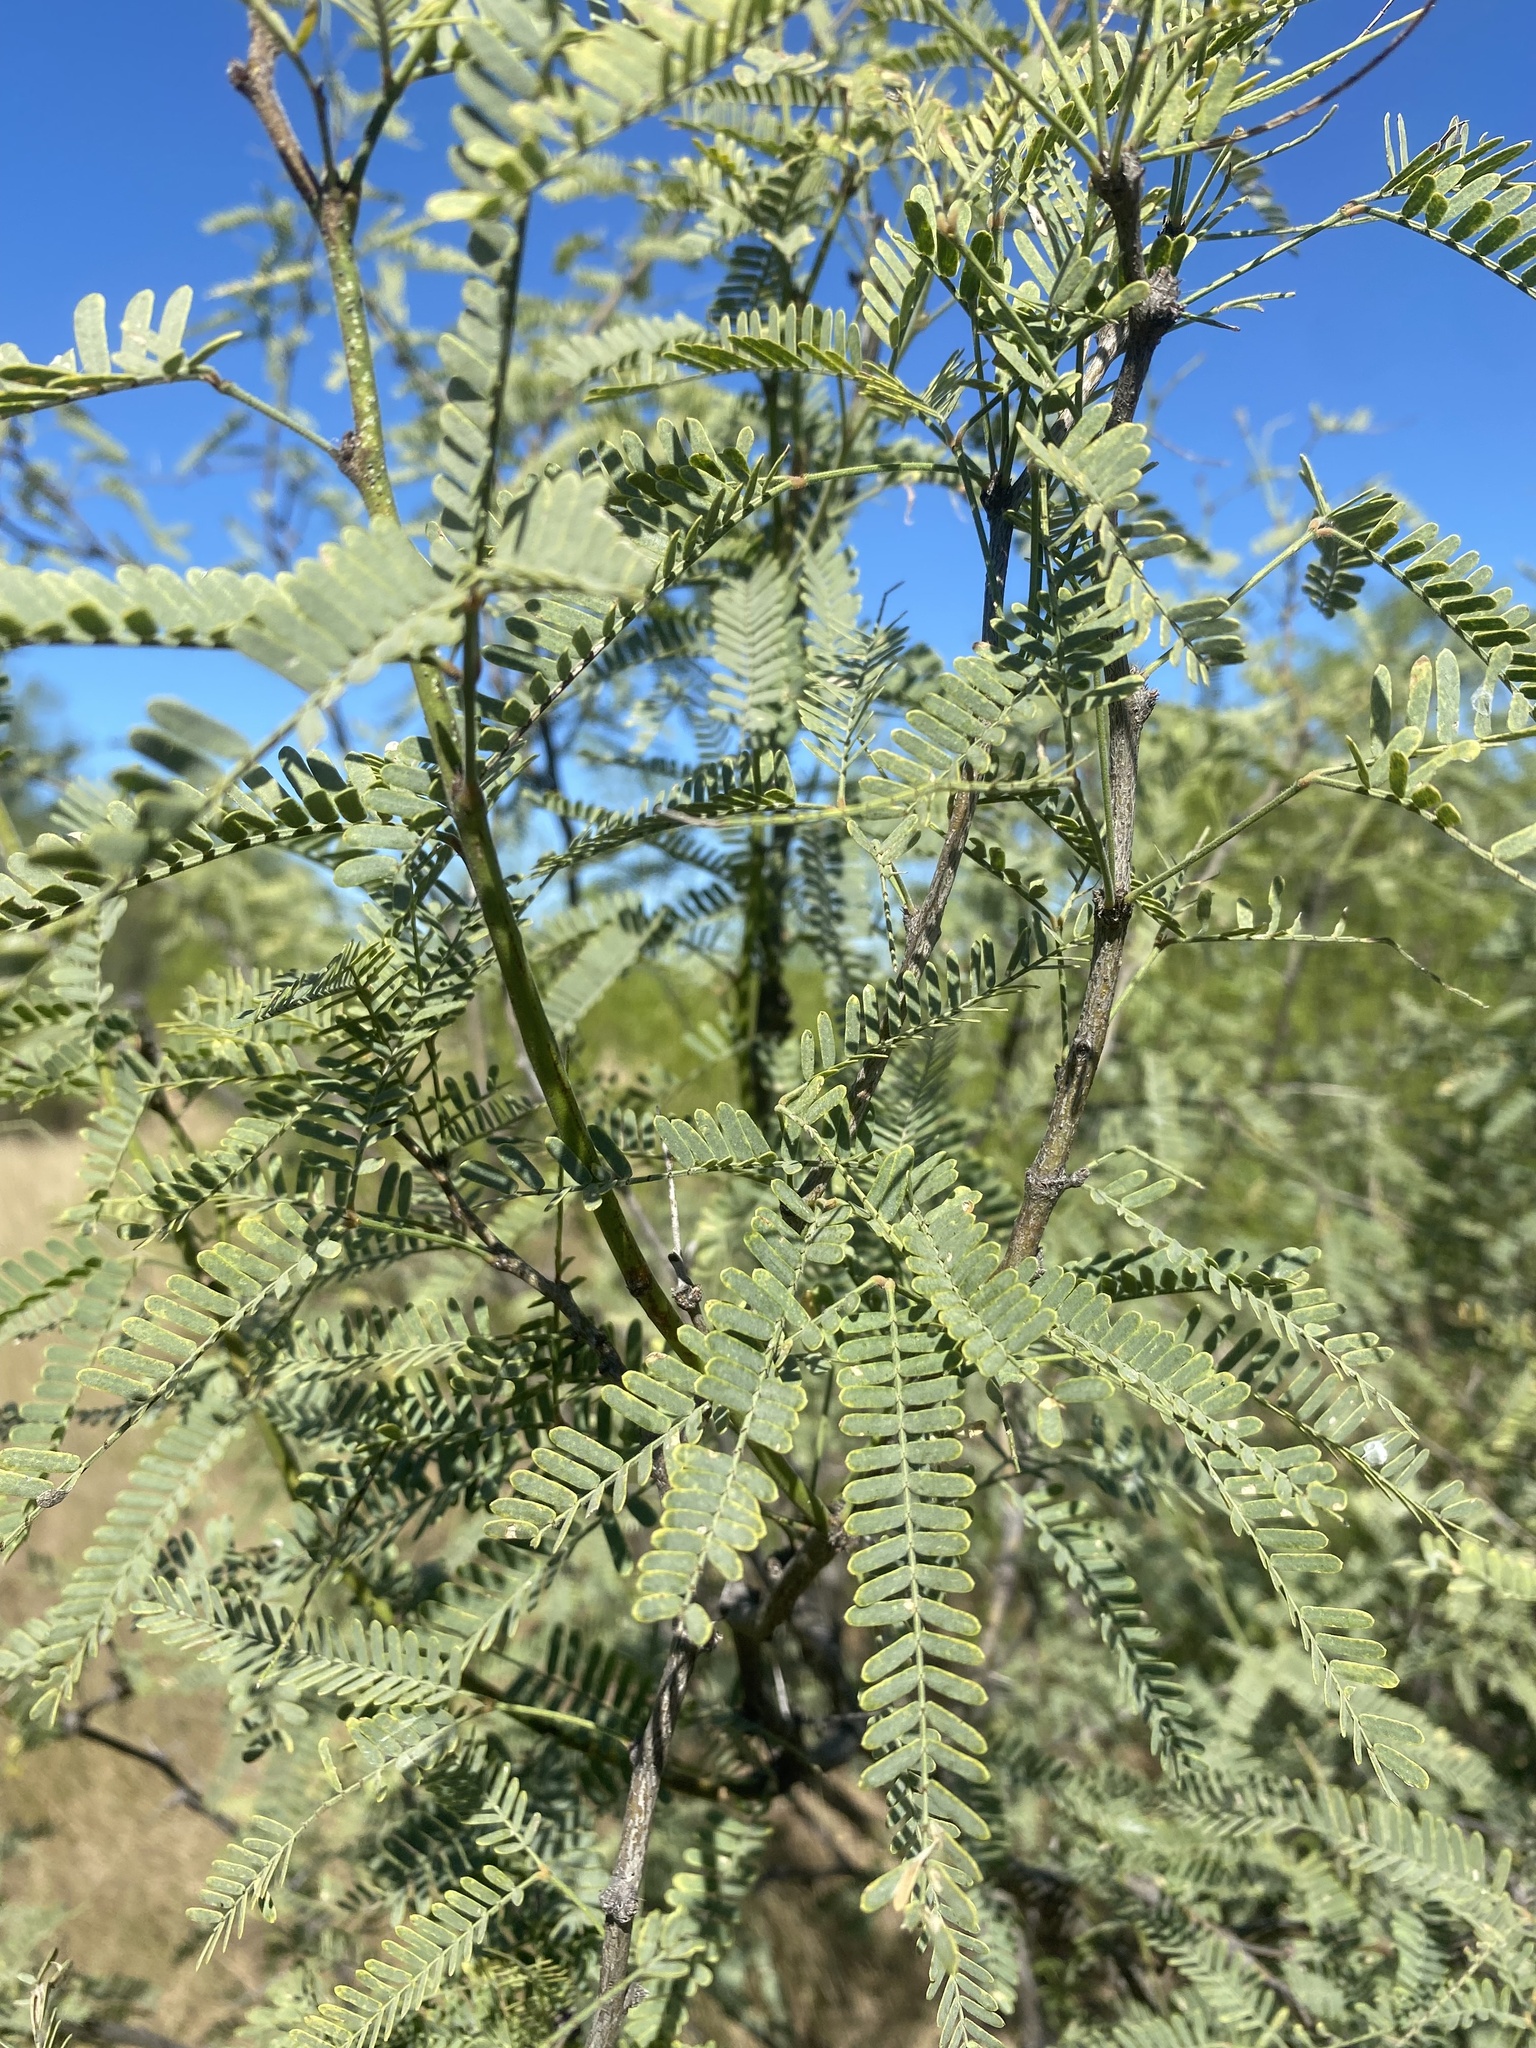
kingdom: Plantae
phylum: Tracheophyta
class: Magnoliopsida
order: Fabales
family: Fabaceae
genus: Prosopis
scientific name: Prosopis velutina
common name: Velvet mesquite
